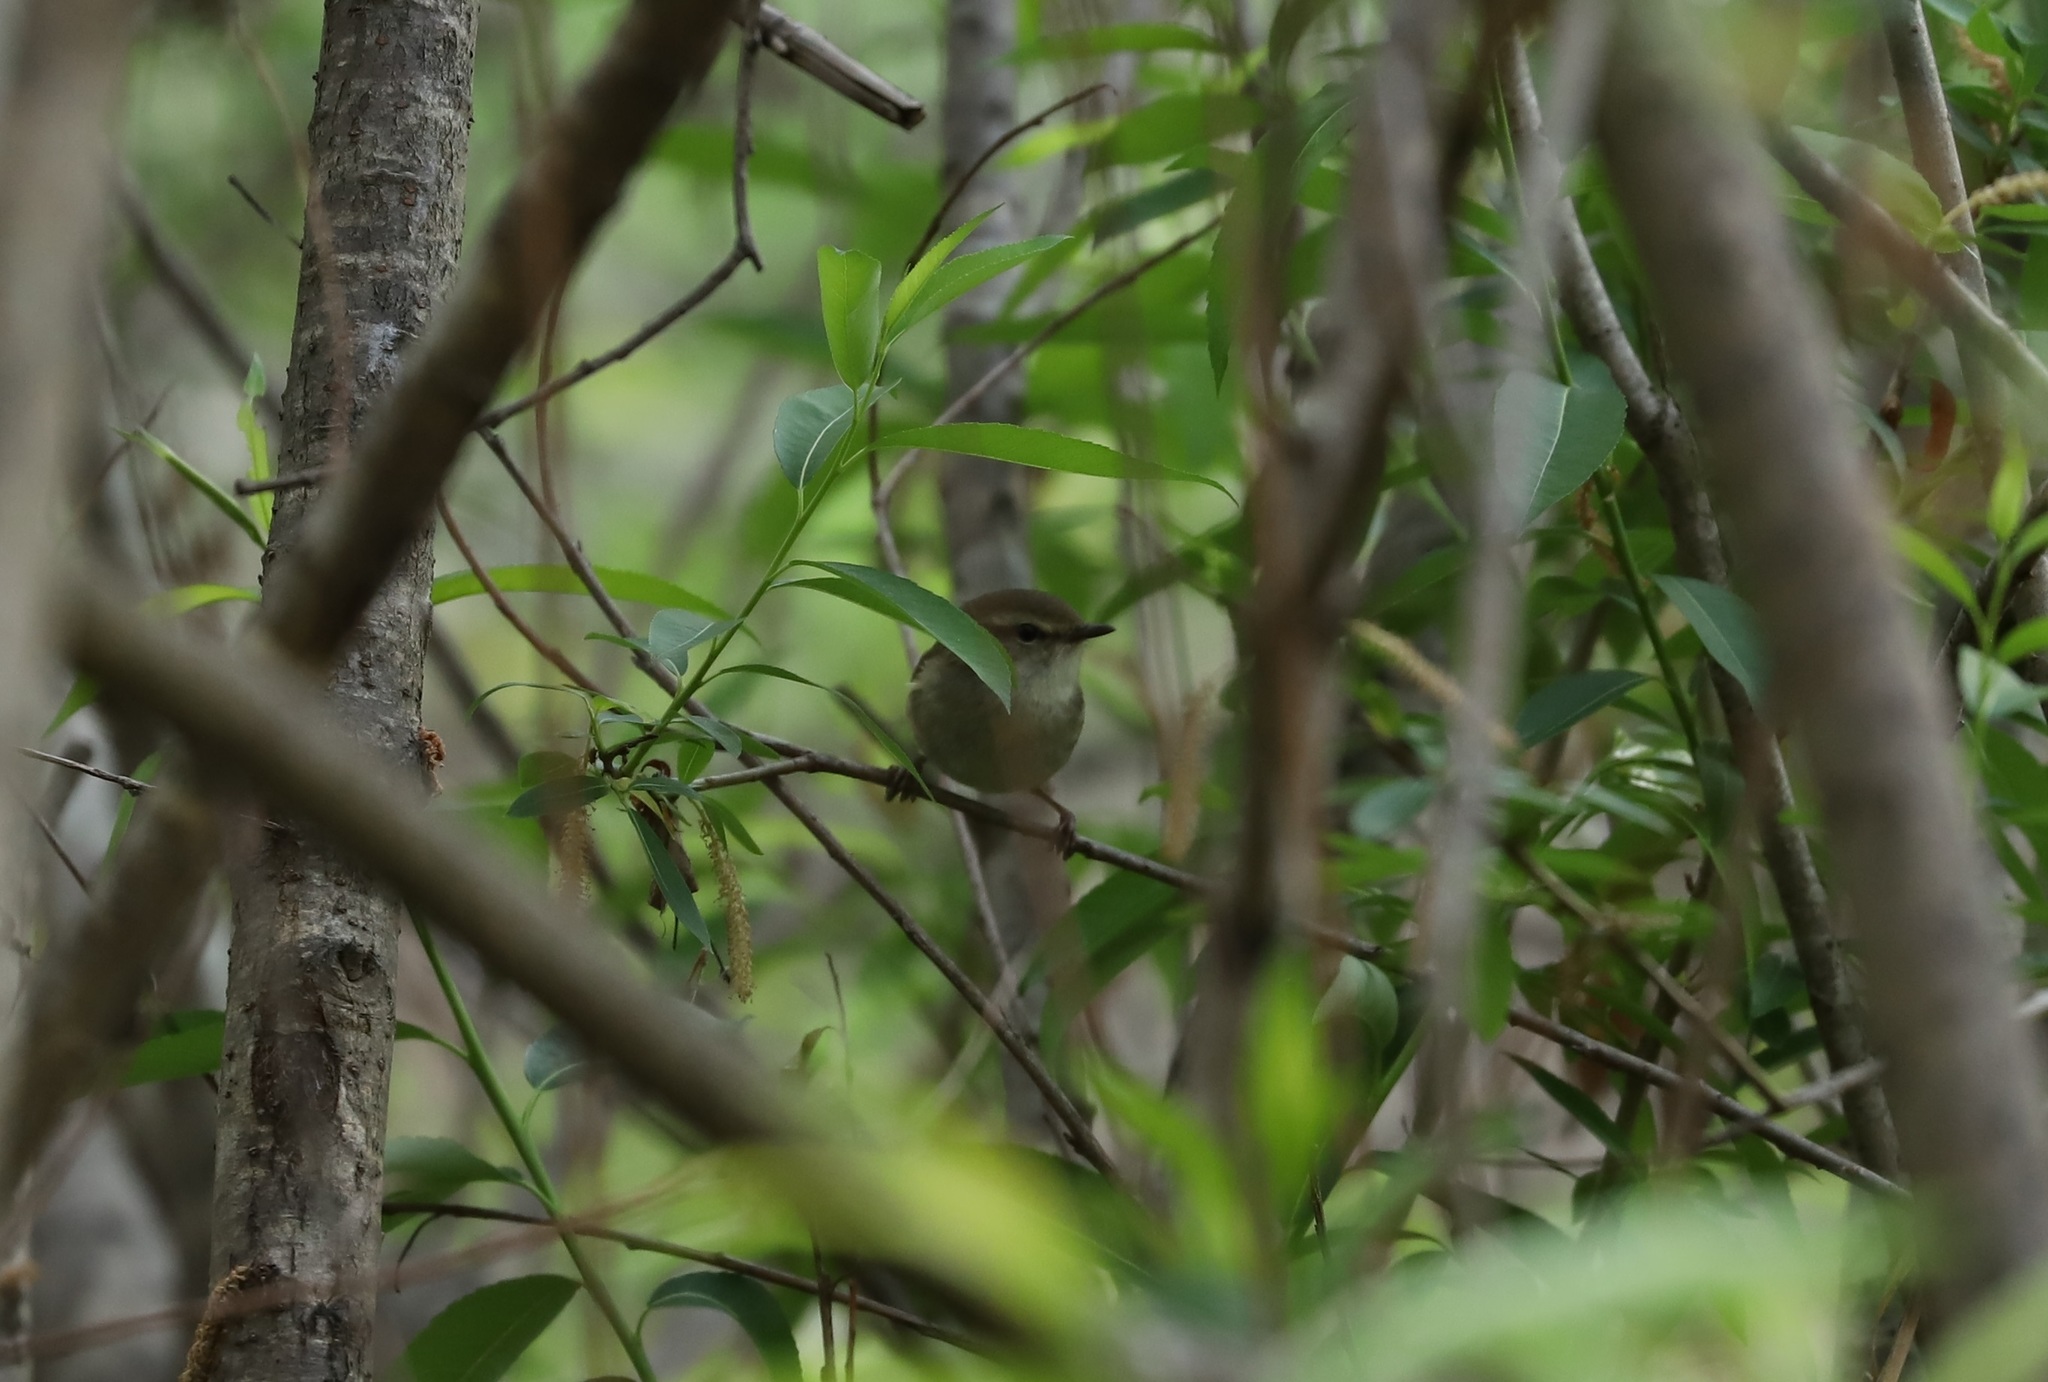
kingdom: Animalia
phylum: Chordata
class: Aves
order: Passeriformes
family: Cettiidae
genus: Horornis
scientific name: Horornis diphone
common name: Japanese bush warbler
